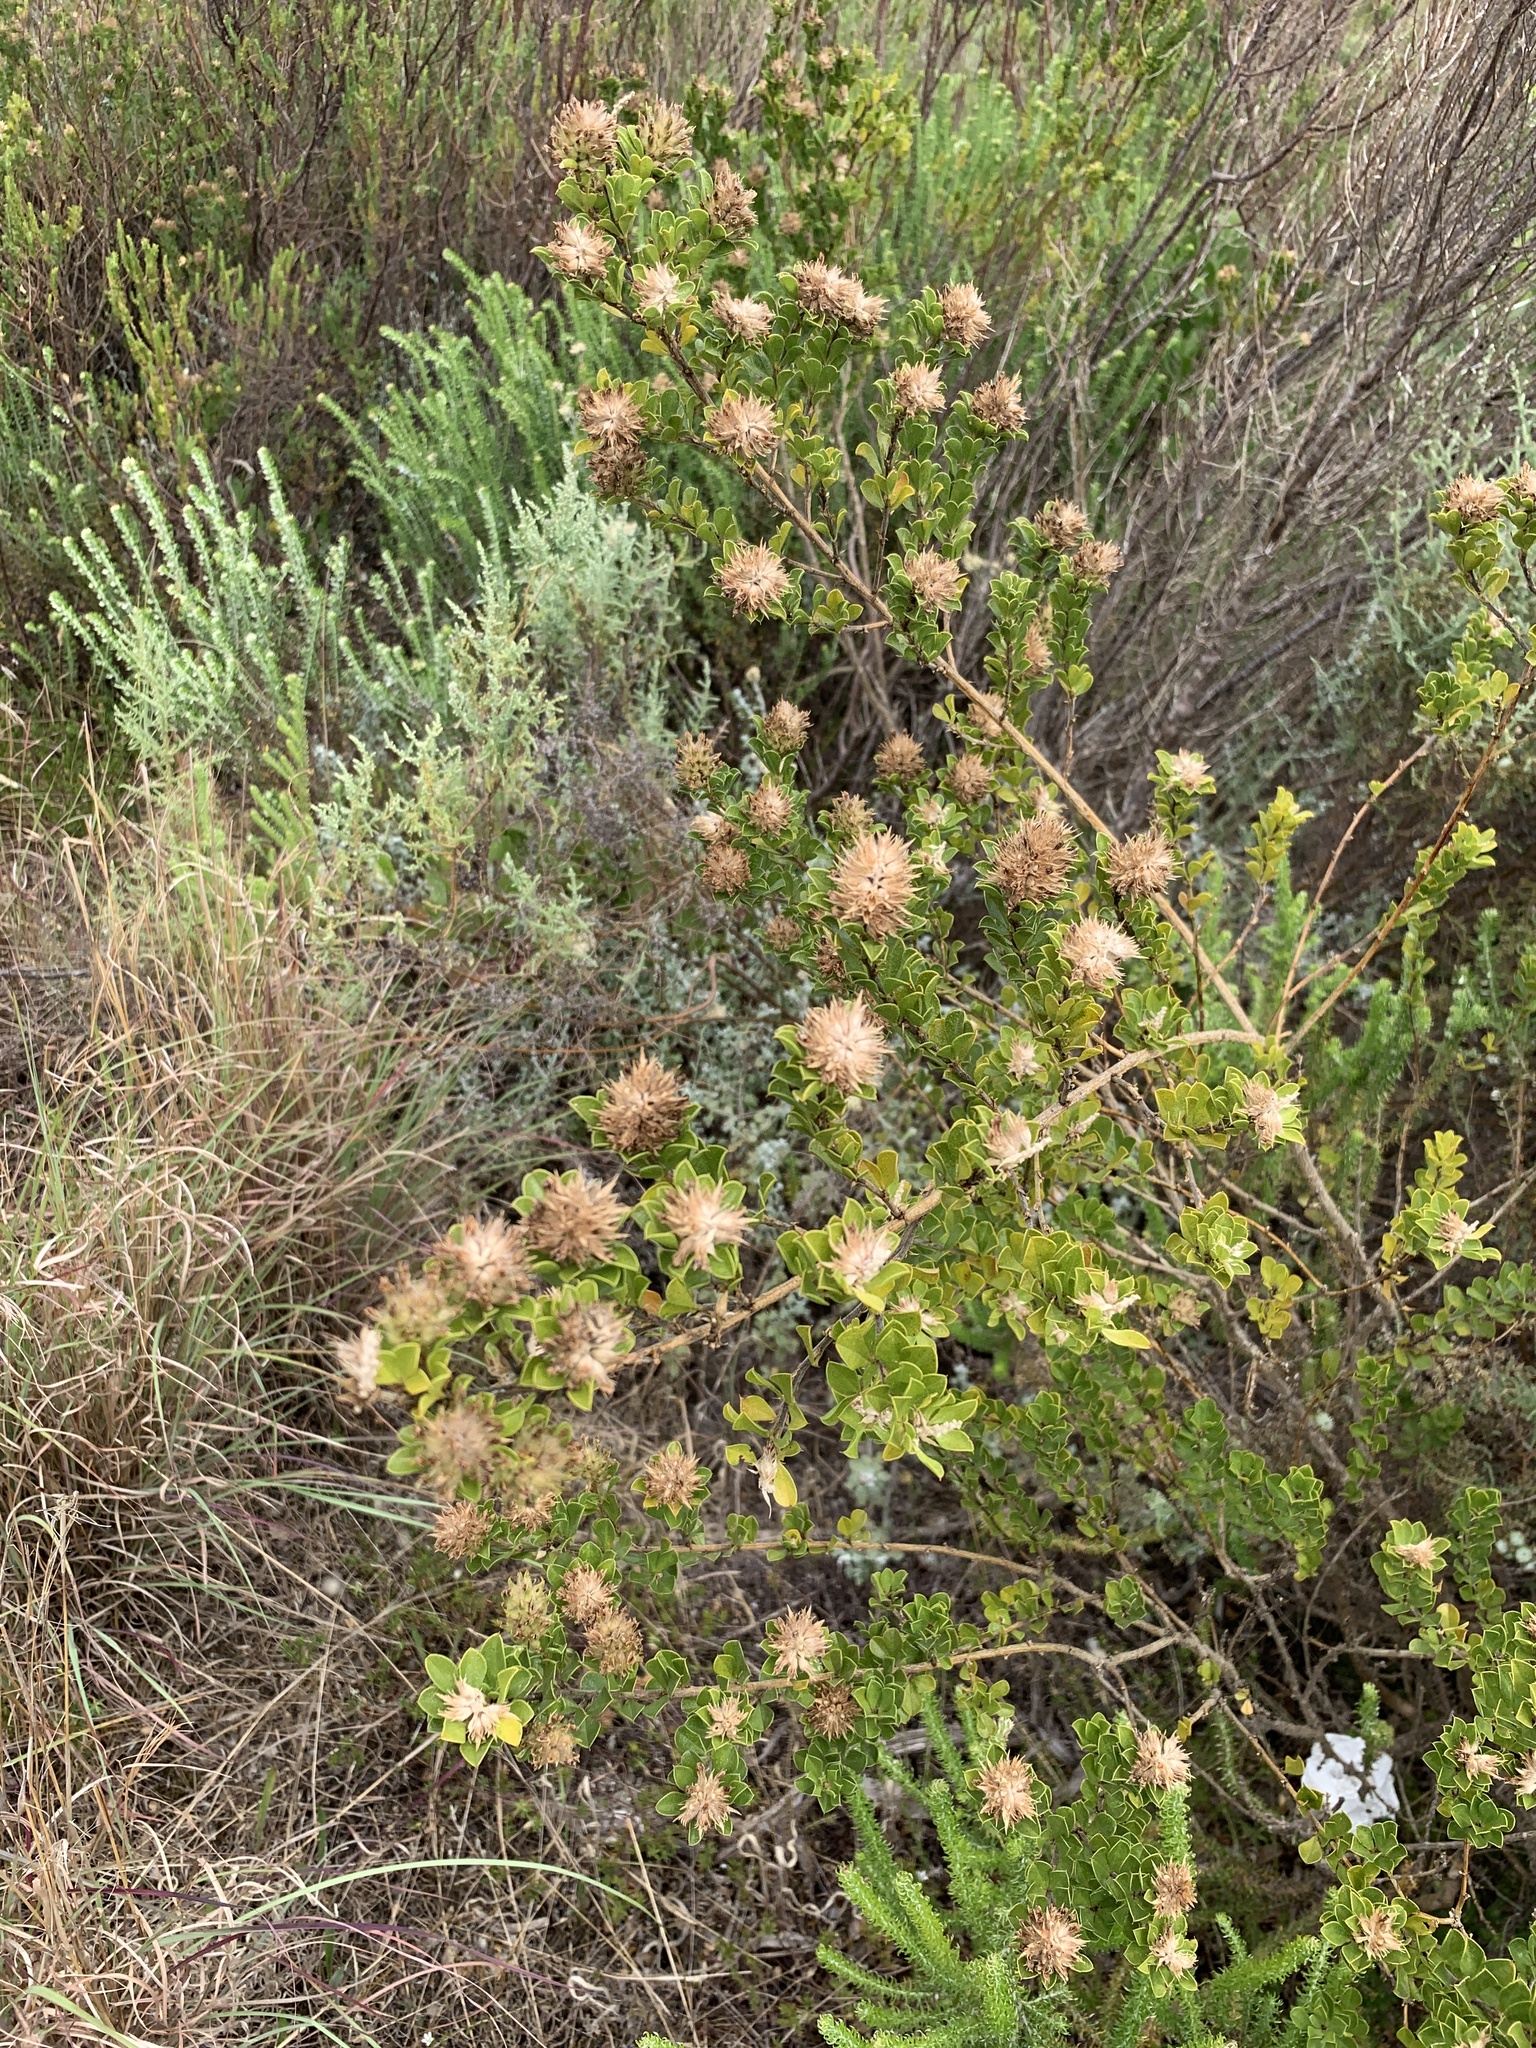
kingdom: Plantae
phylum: Tracheophyta
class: Magnoliopsida
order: Fabales
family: Fabaceae
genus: Psoralea
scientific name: Psoralea bracteolata
